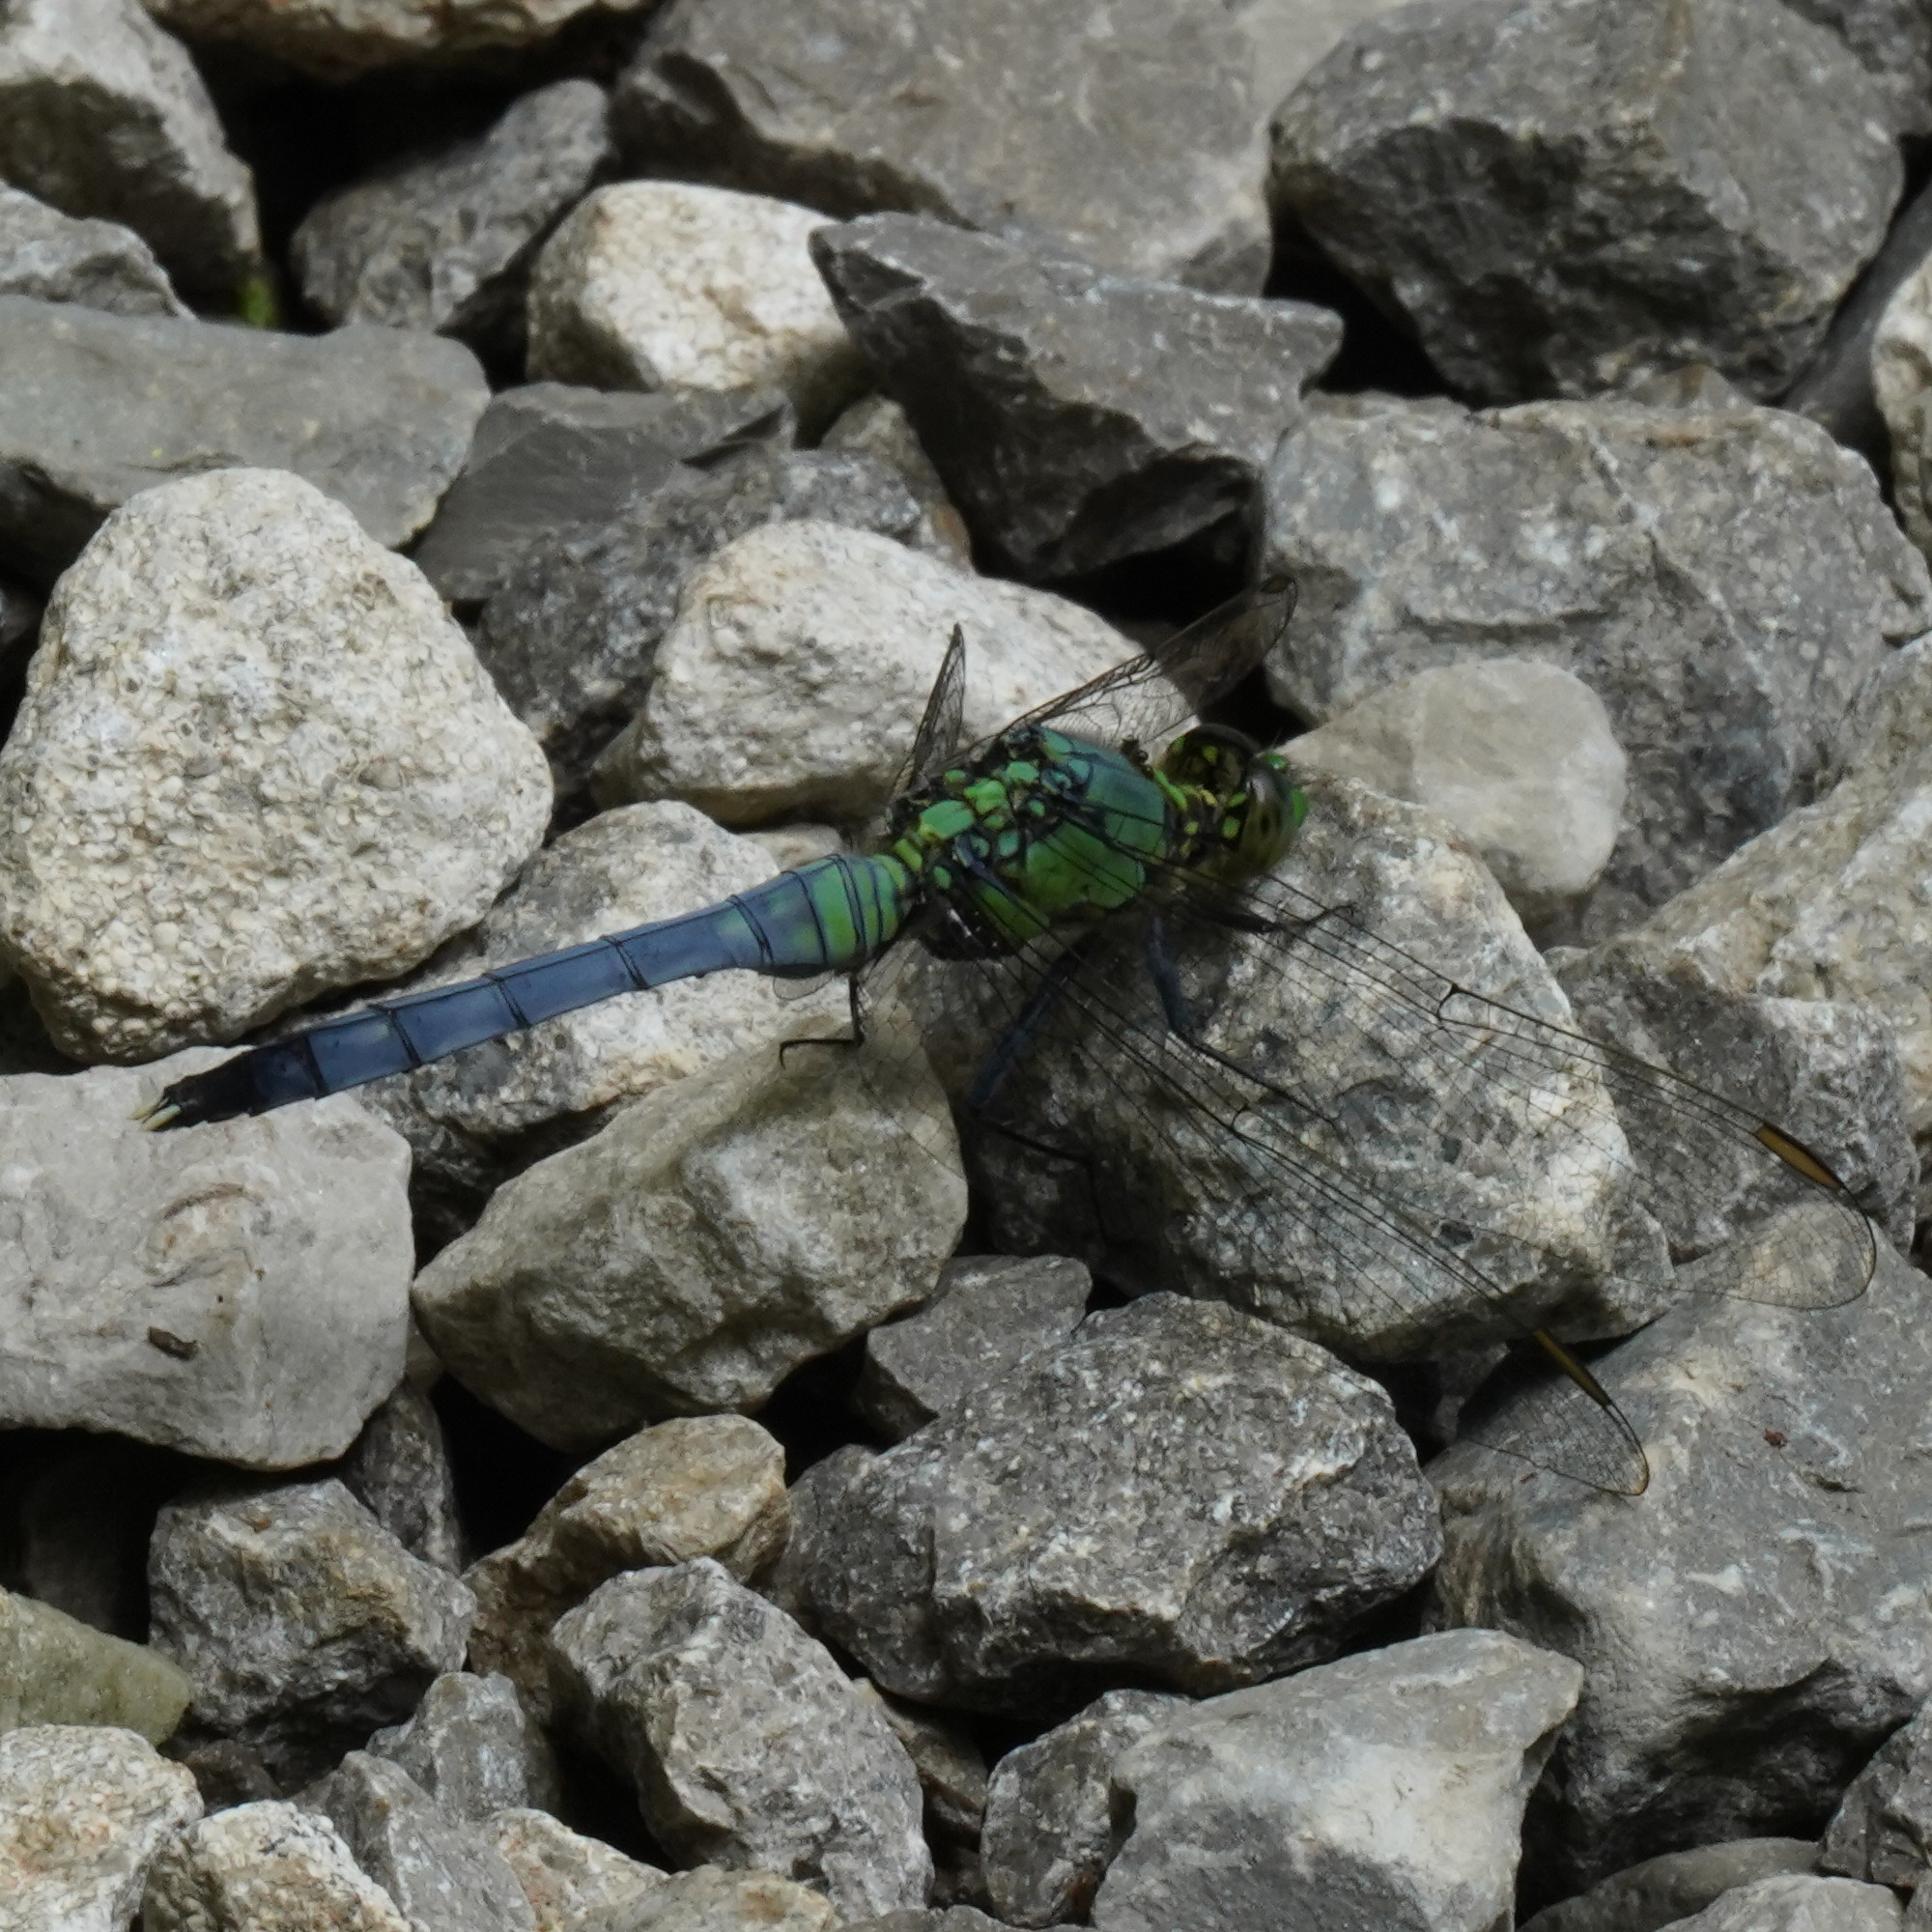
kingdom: Animalia
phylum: Arthropoda
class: Insecta
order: Odonata
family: Libellulidae
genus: Erythemis
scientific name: Erythemis simplicicollis
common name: Eastern pondhawk
